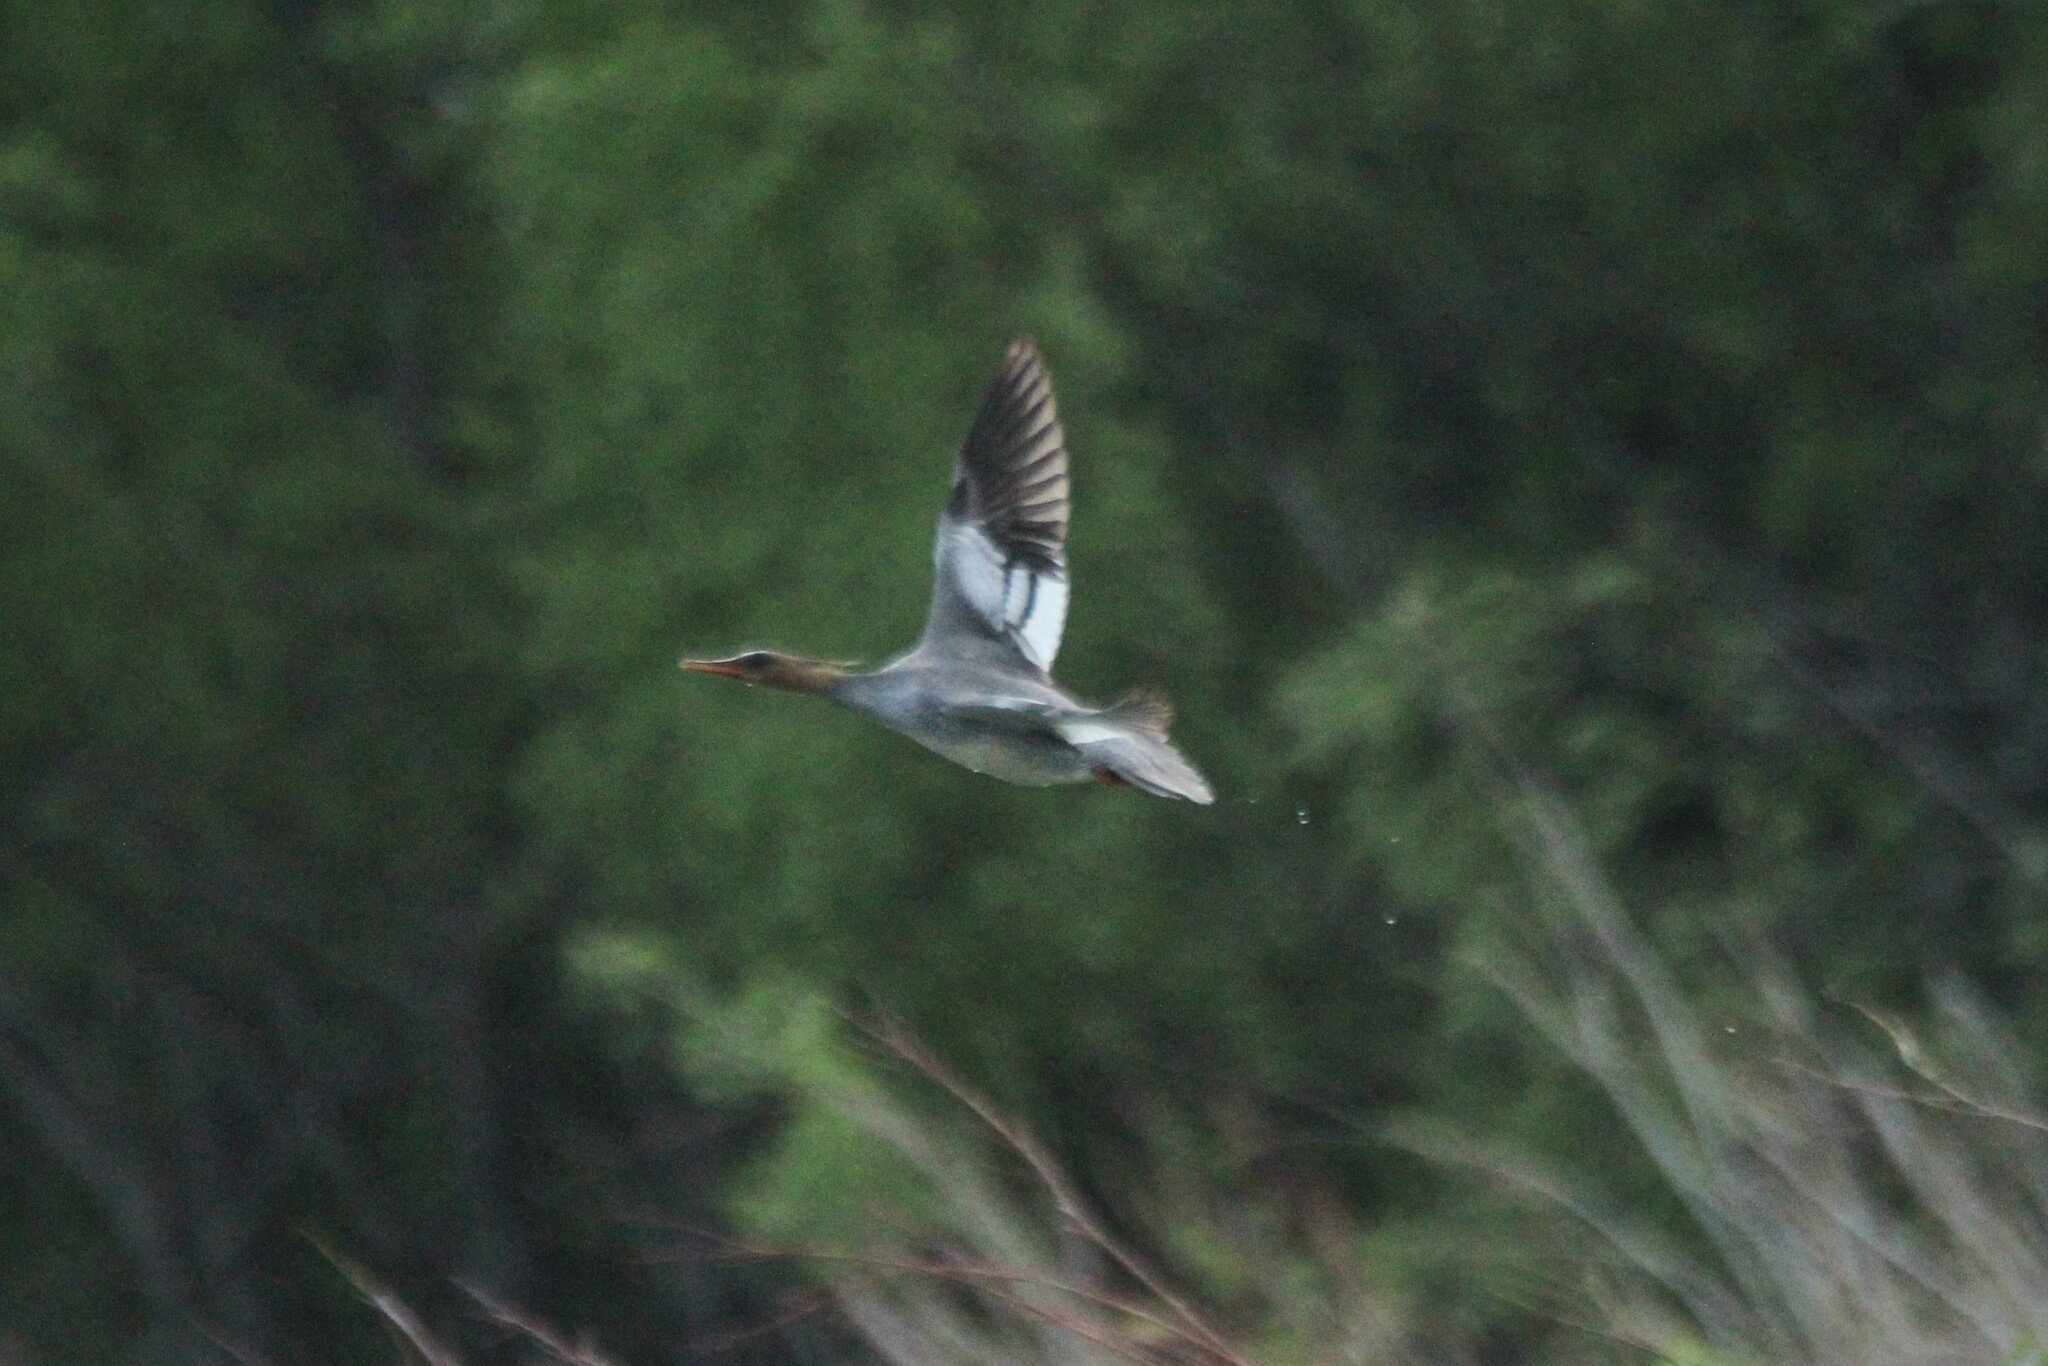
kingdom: Animalia
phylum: Chordata
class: Aves
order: Anseriformes
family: Anatidae
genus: Mergus
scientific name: Mergus squamatus
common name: Scaly-sided merganser
